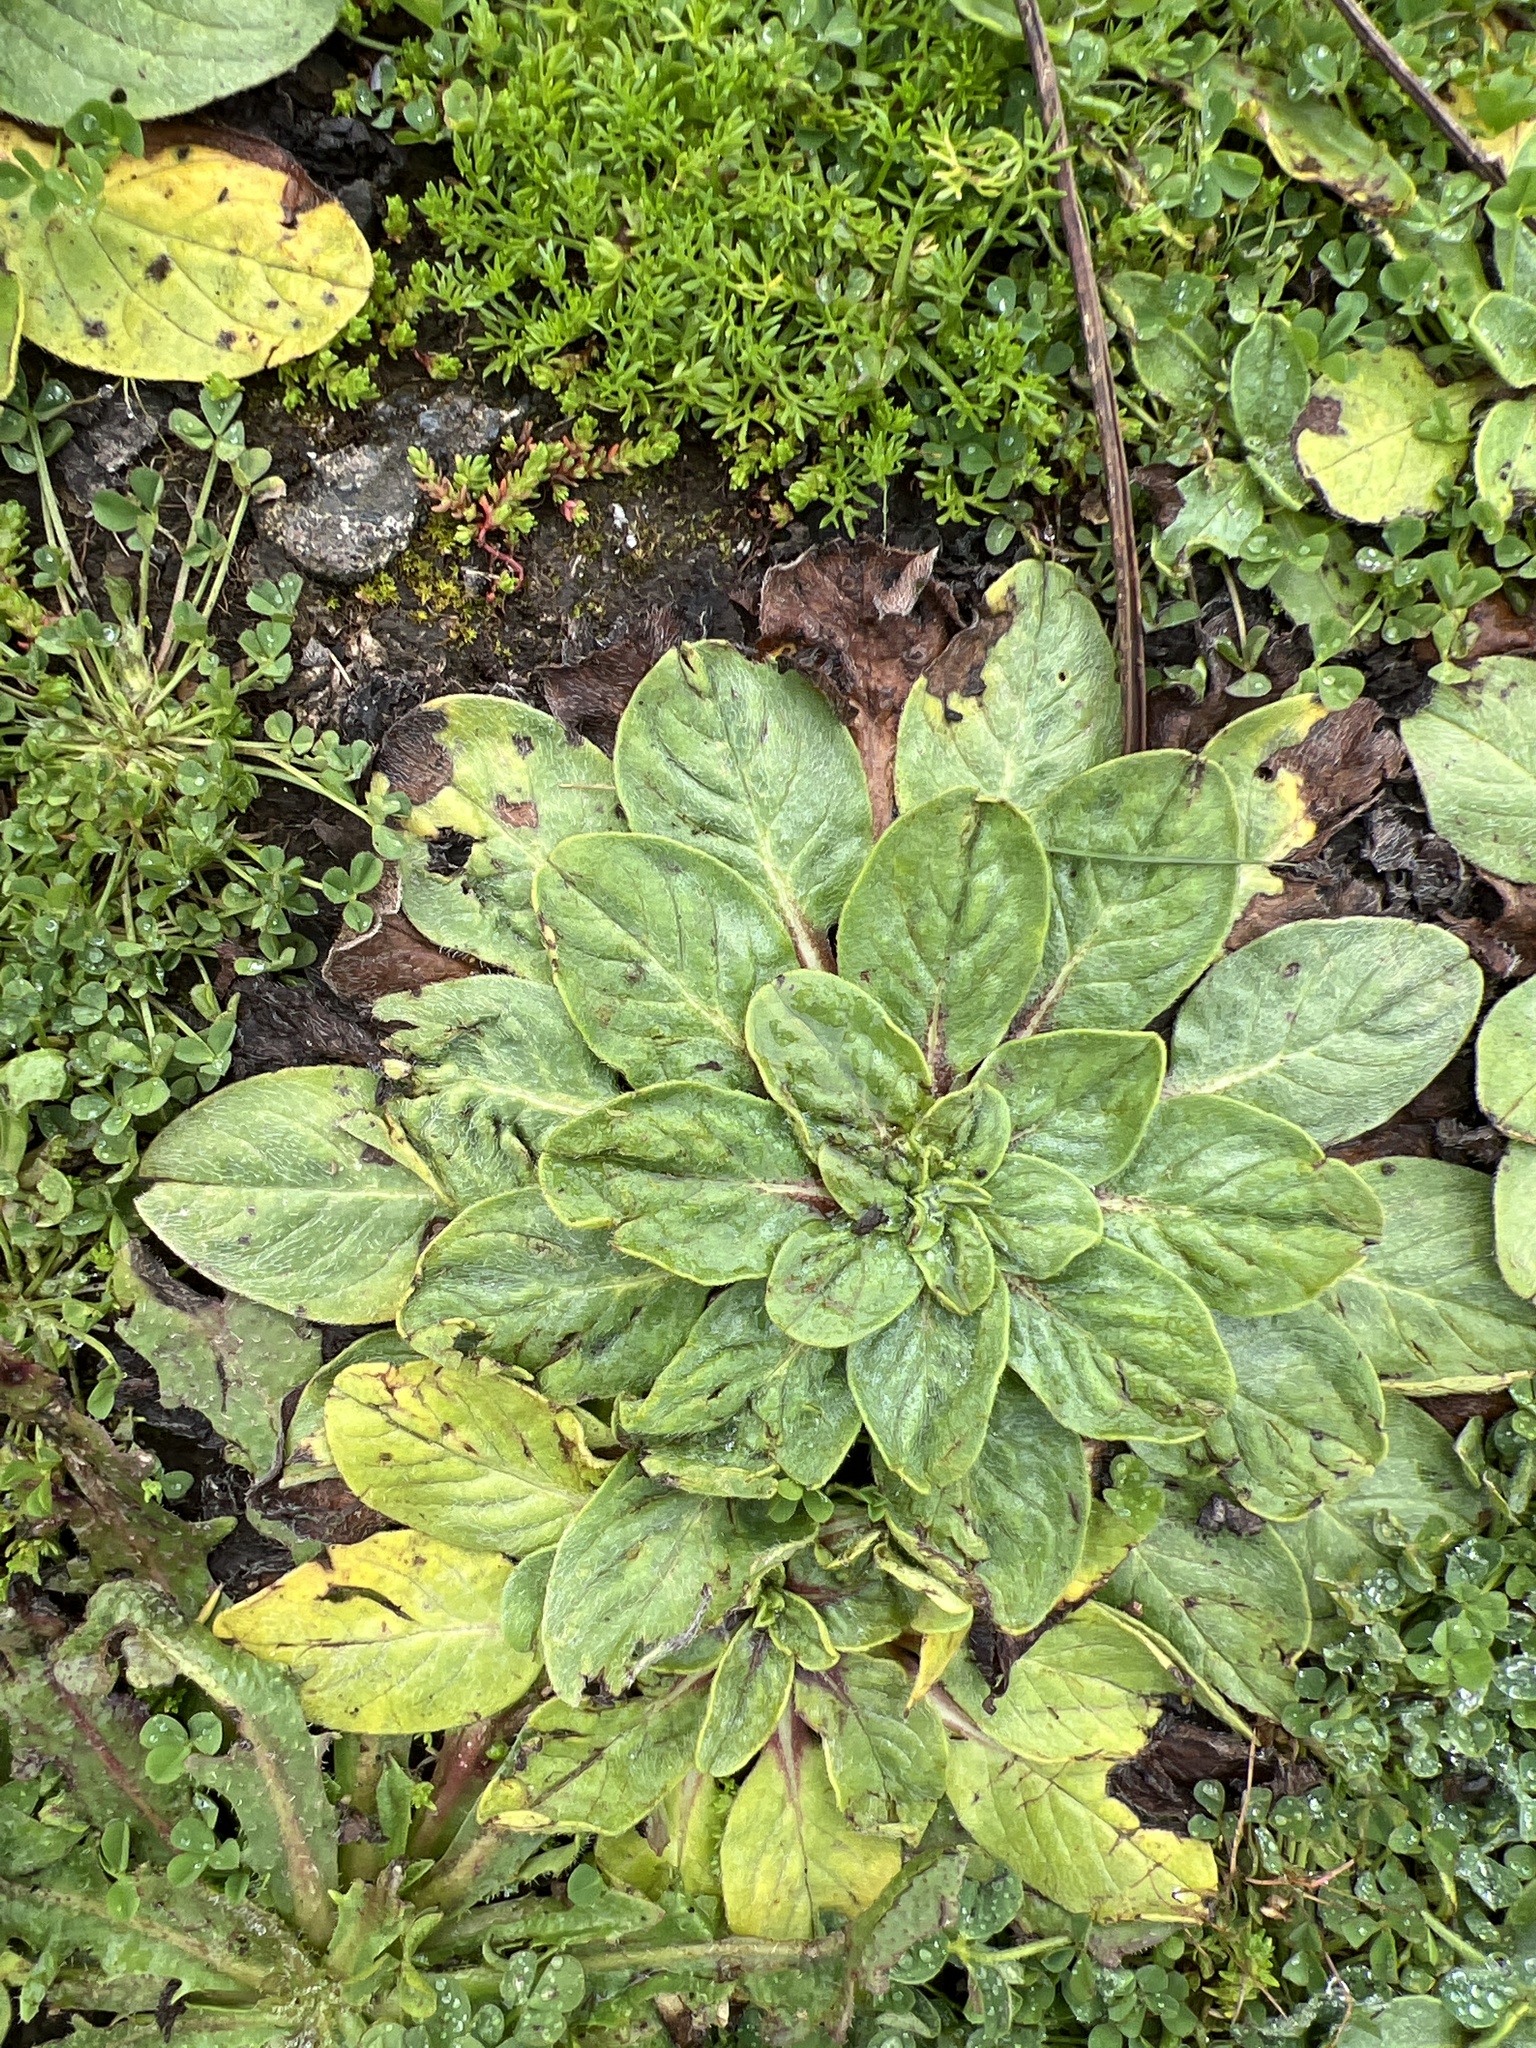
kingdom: Plantae
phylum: Tracheophyta
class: Magnoliopsida
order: Boraginales
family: Boraginaceae
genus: Echium
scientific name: Echium plantagineum
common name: Purple viper's-bugloss
